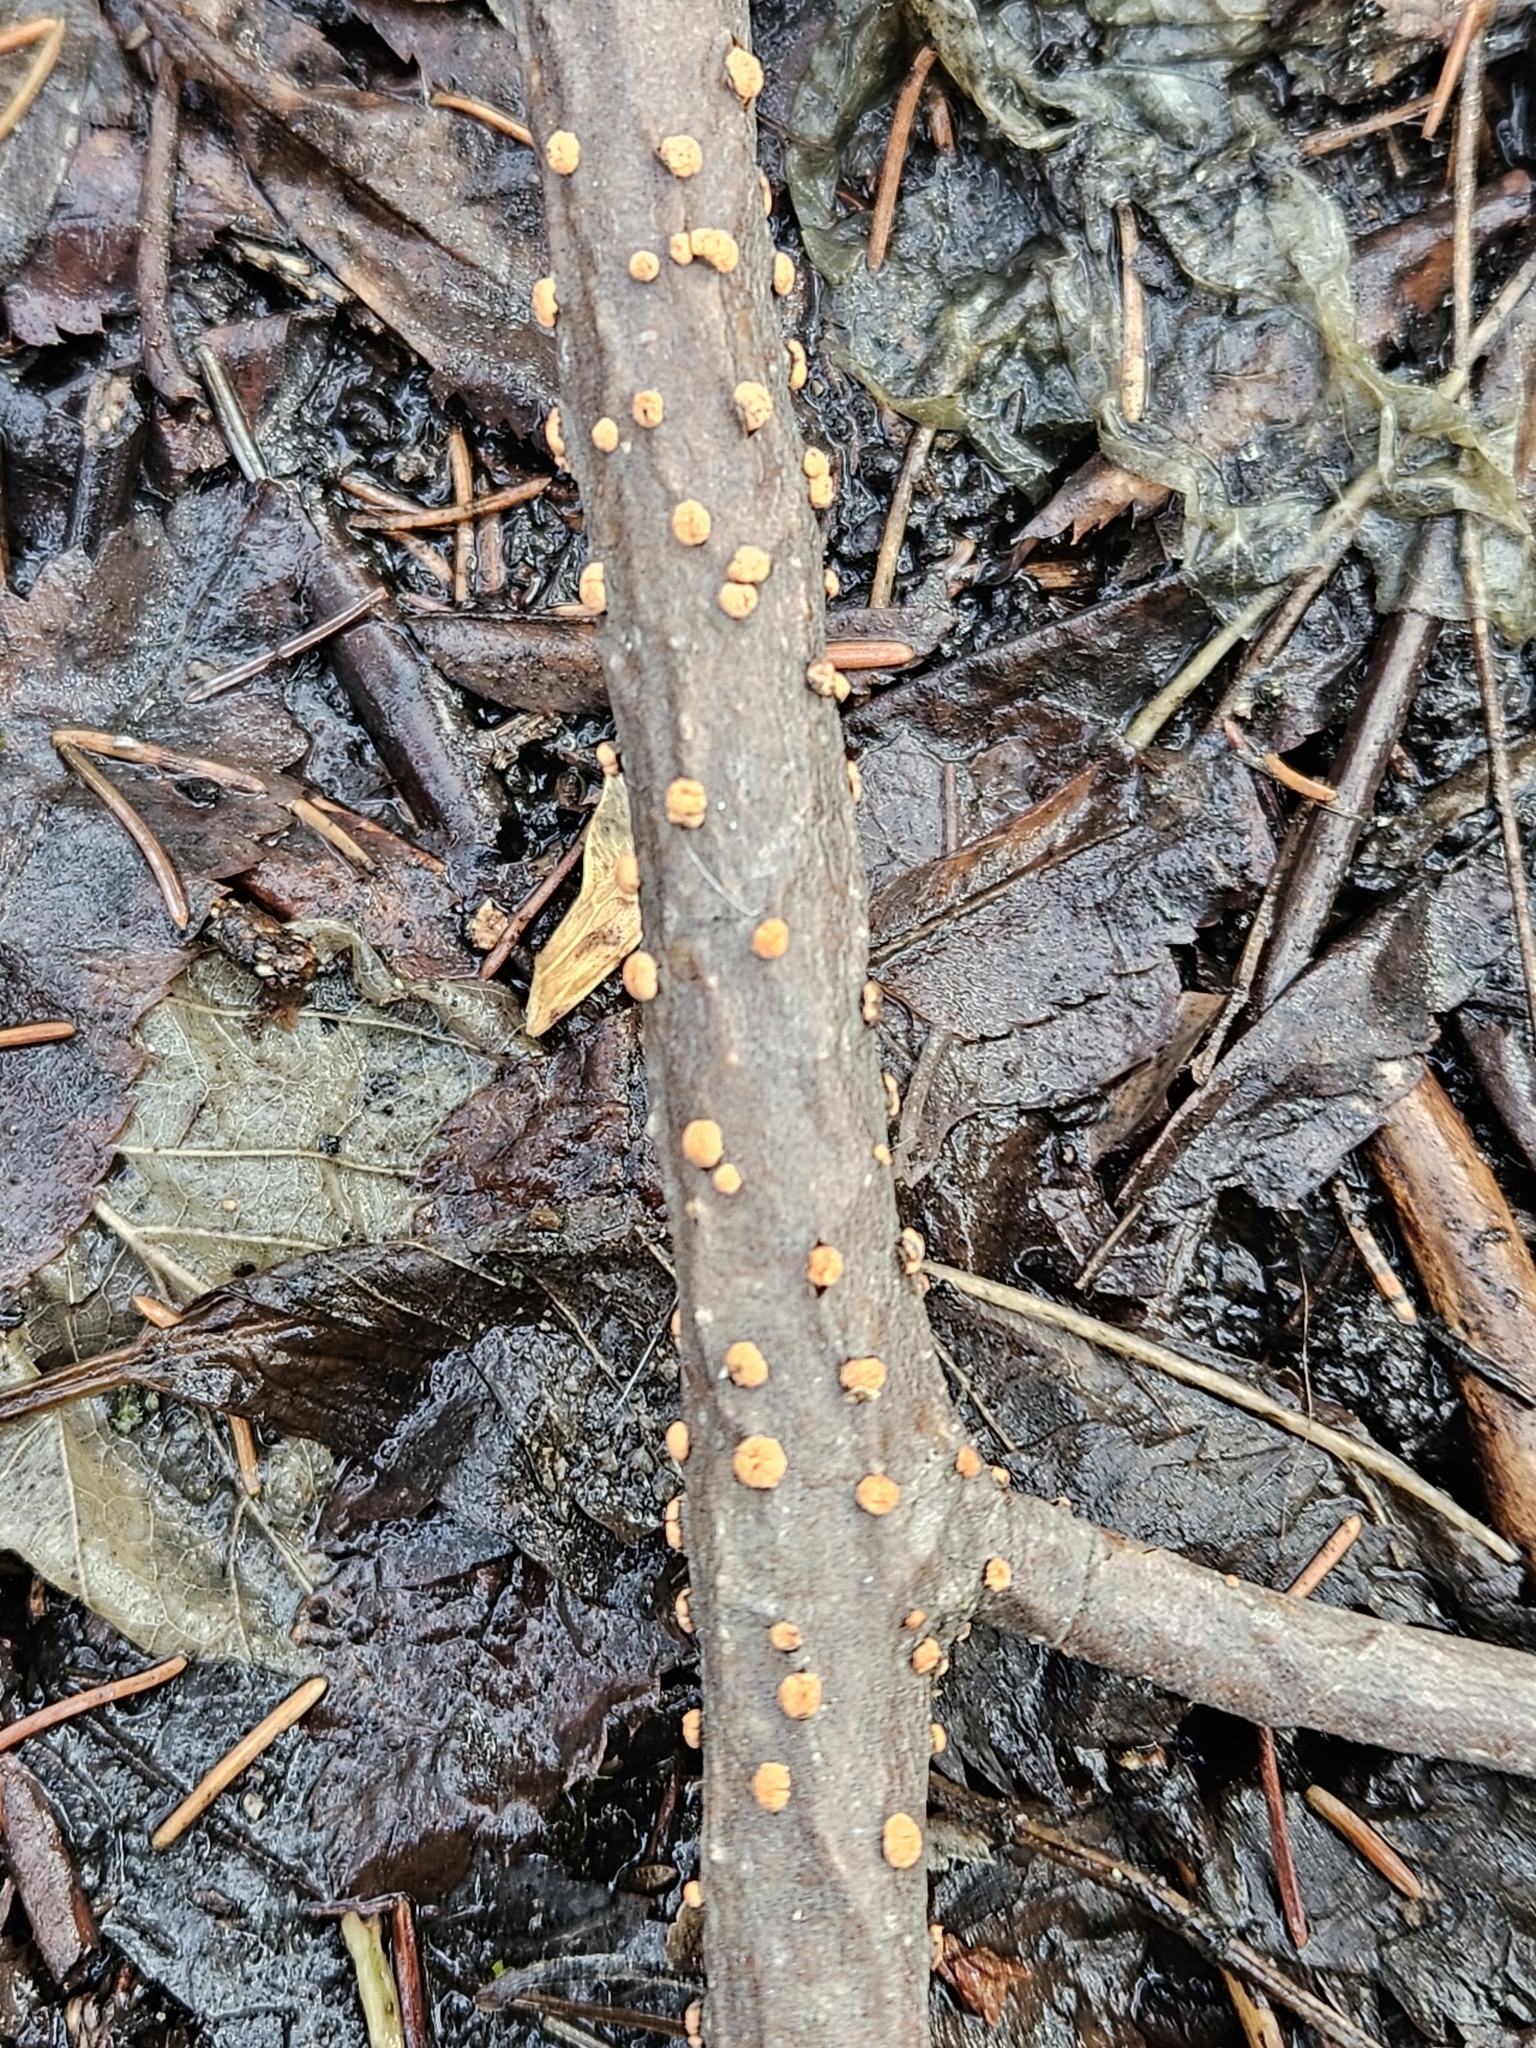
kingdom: Fungi
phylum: Ascomycota
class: Sordariomycetes
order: Hypocreales
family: Nectriaceae
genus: Nectria
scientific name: Nectria cinnabarina
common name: Coral spot
